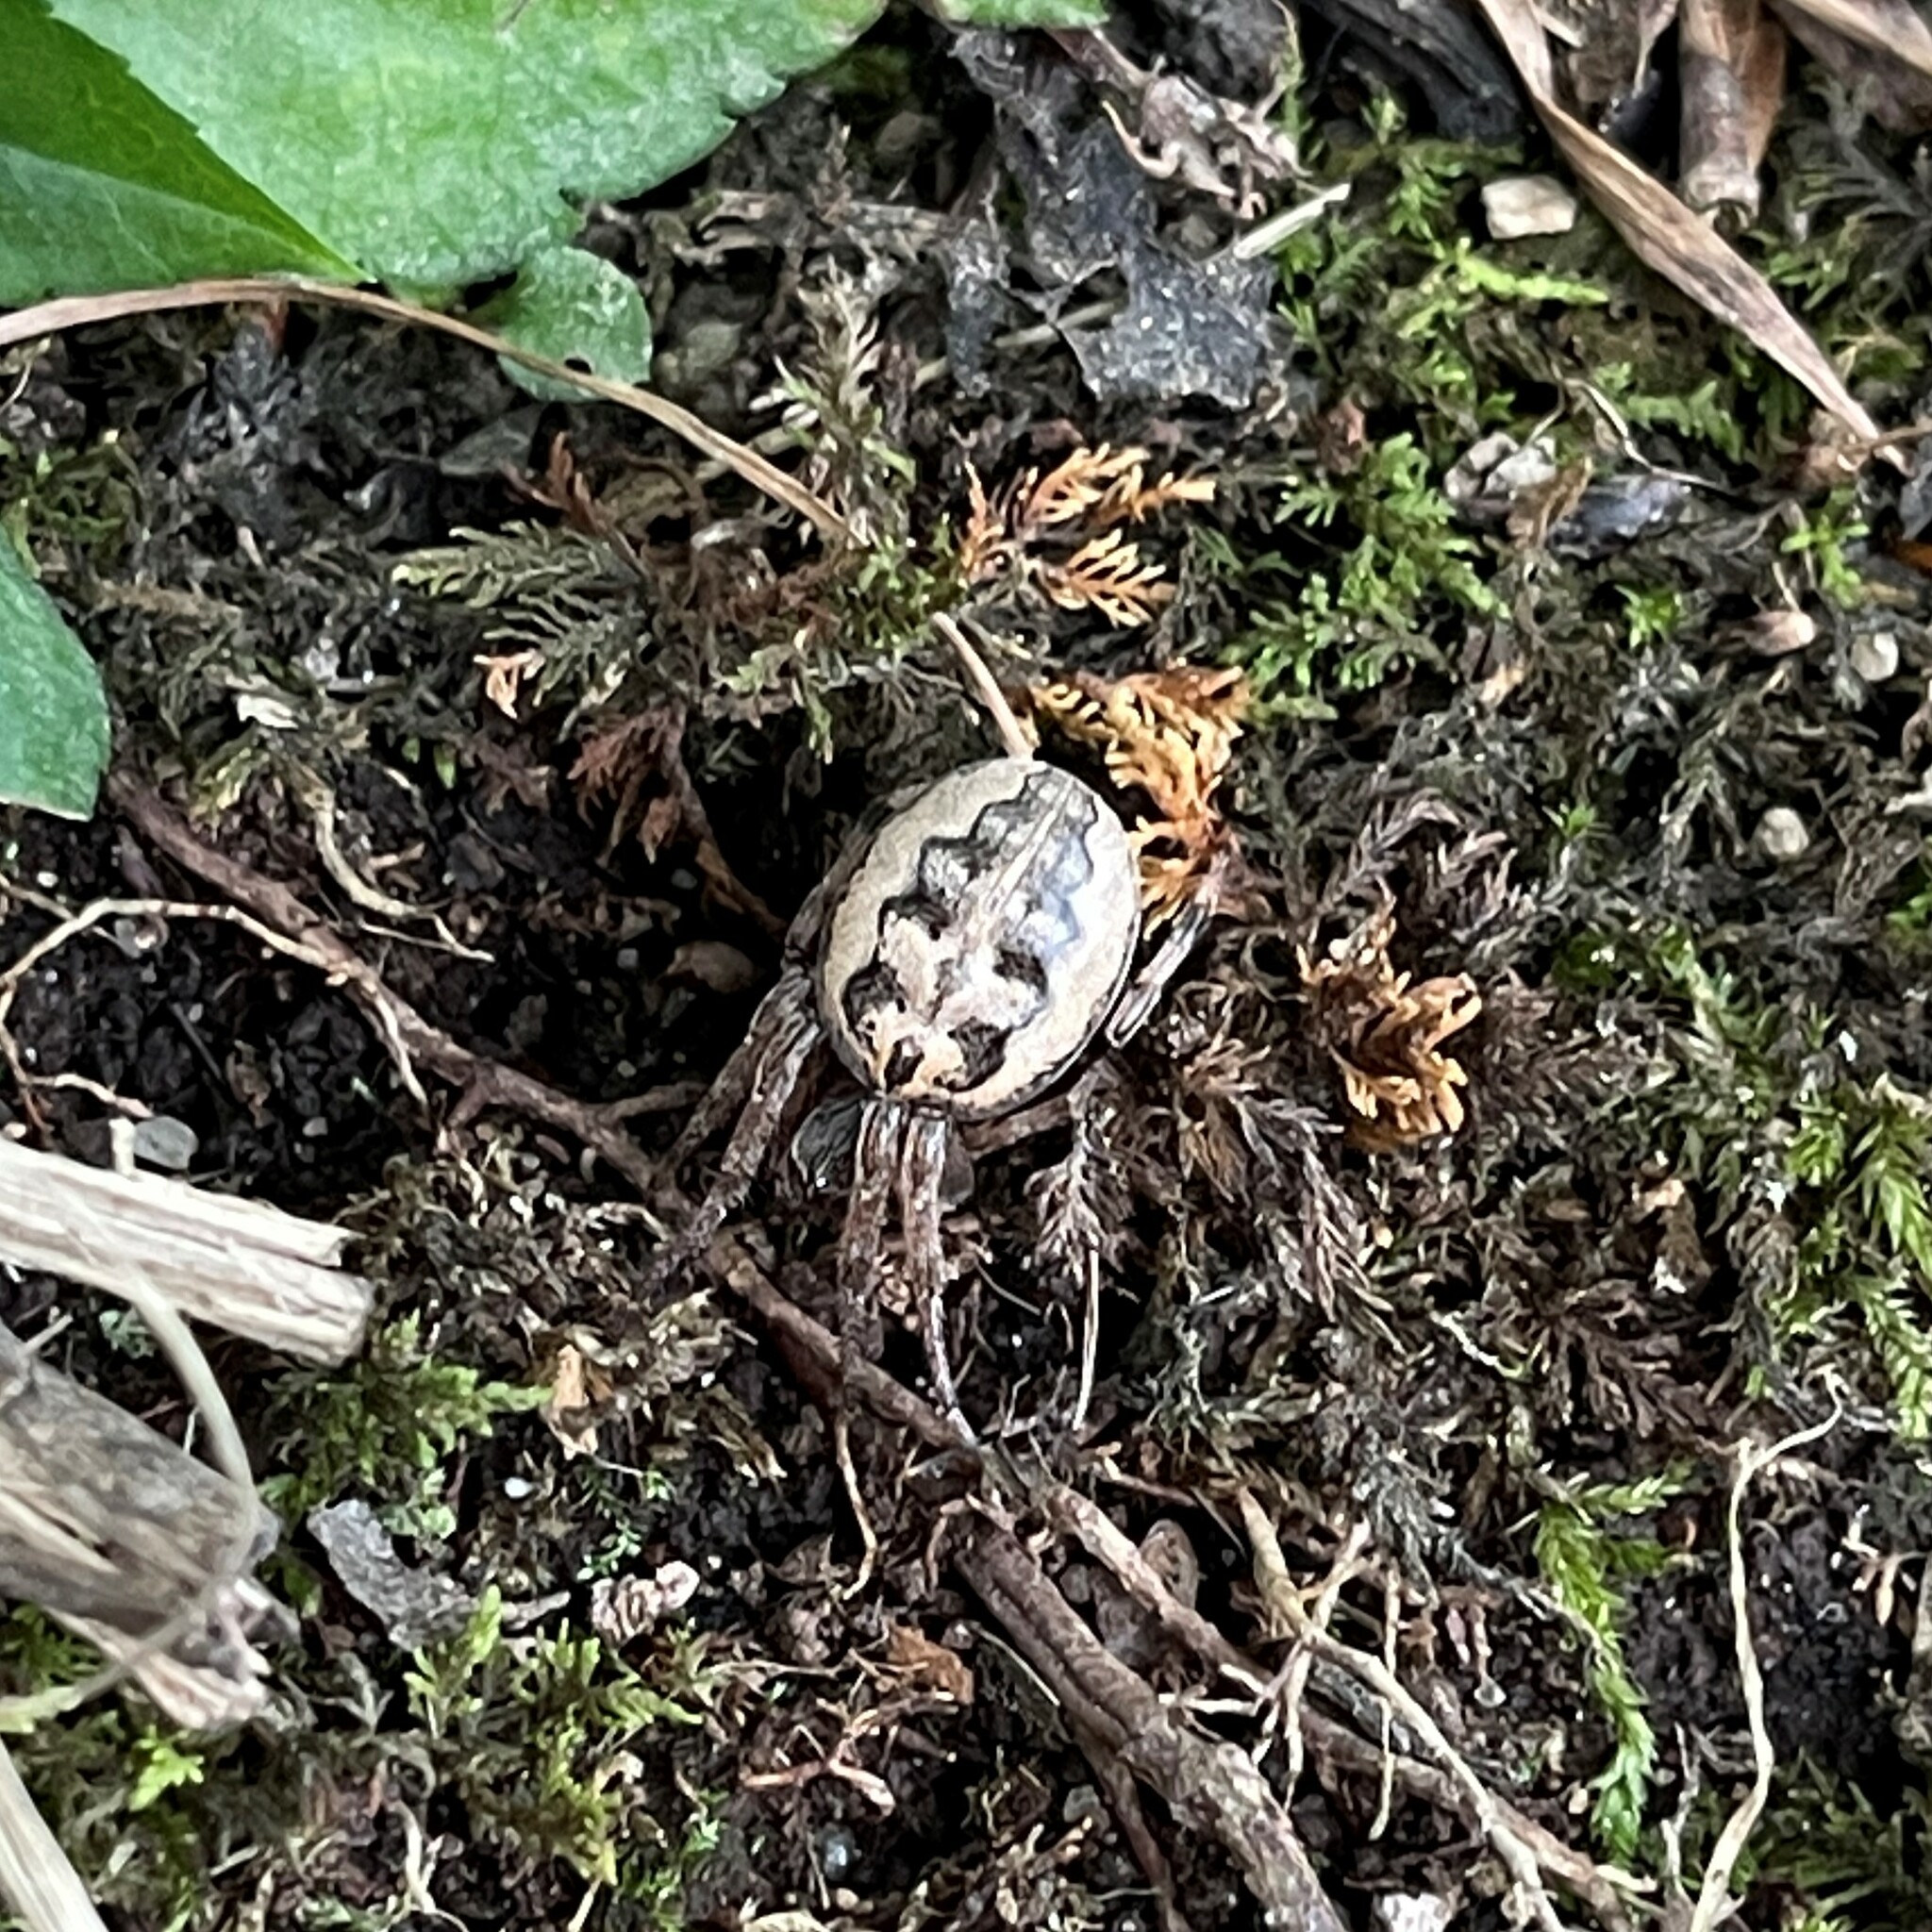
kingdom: Animalia
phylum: Arthropoda
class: Arachnida
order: Araneae
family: Araneidae
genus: Larinioides
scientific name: Larinioides cornutus
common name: Furrow orbweaver
